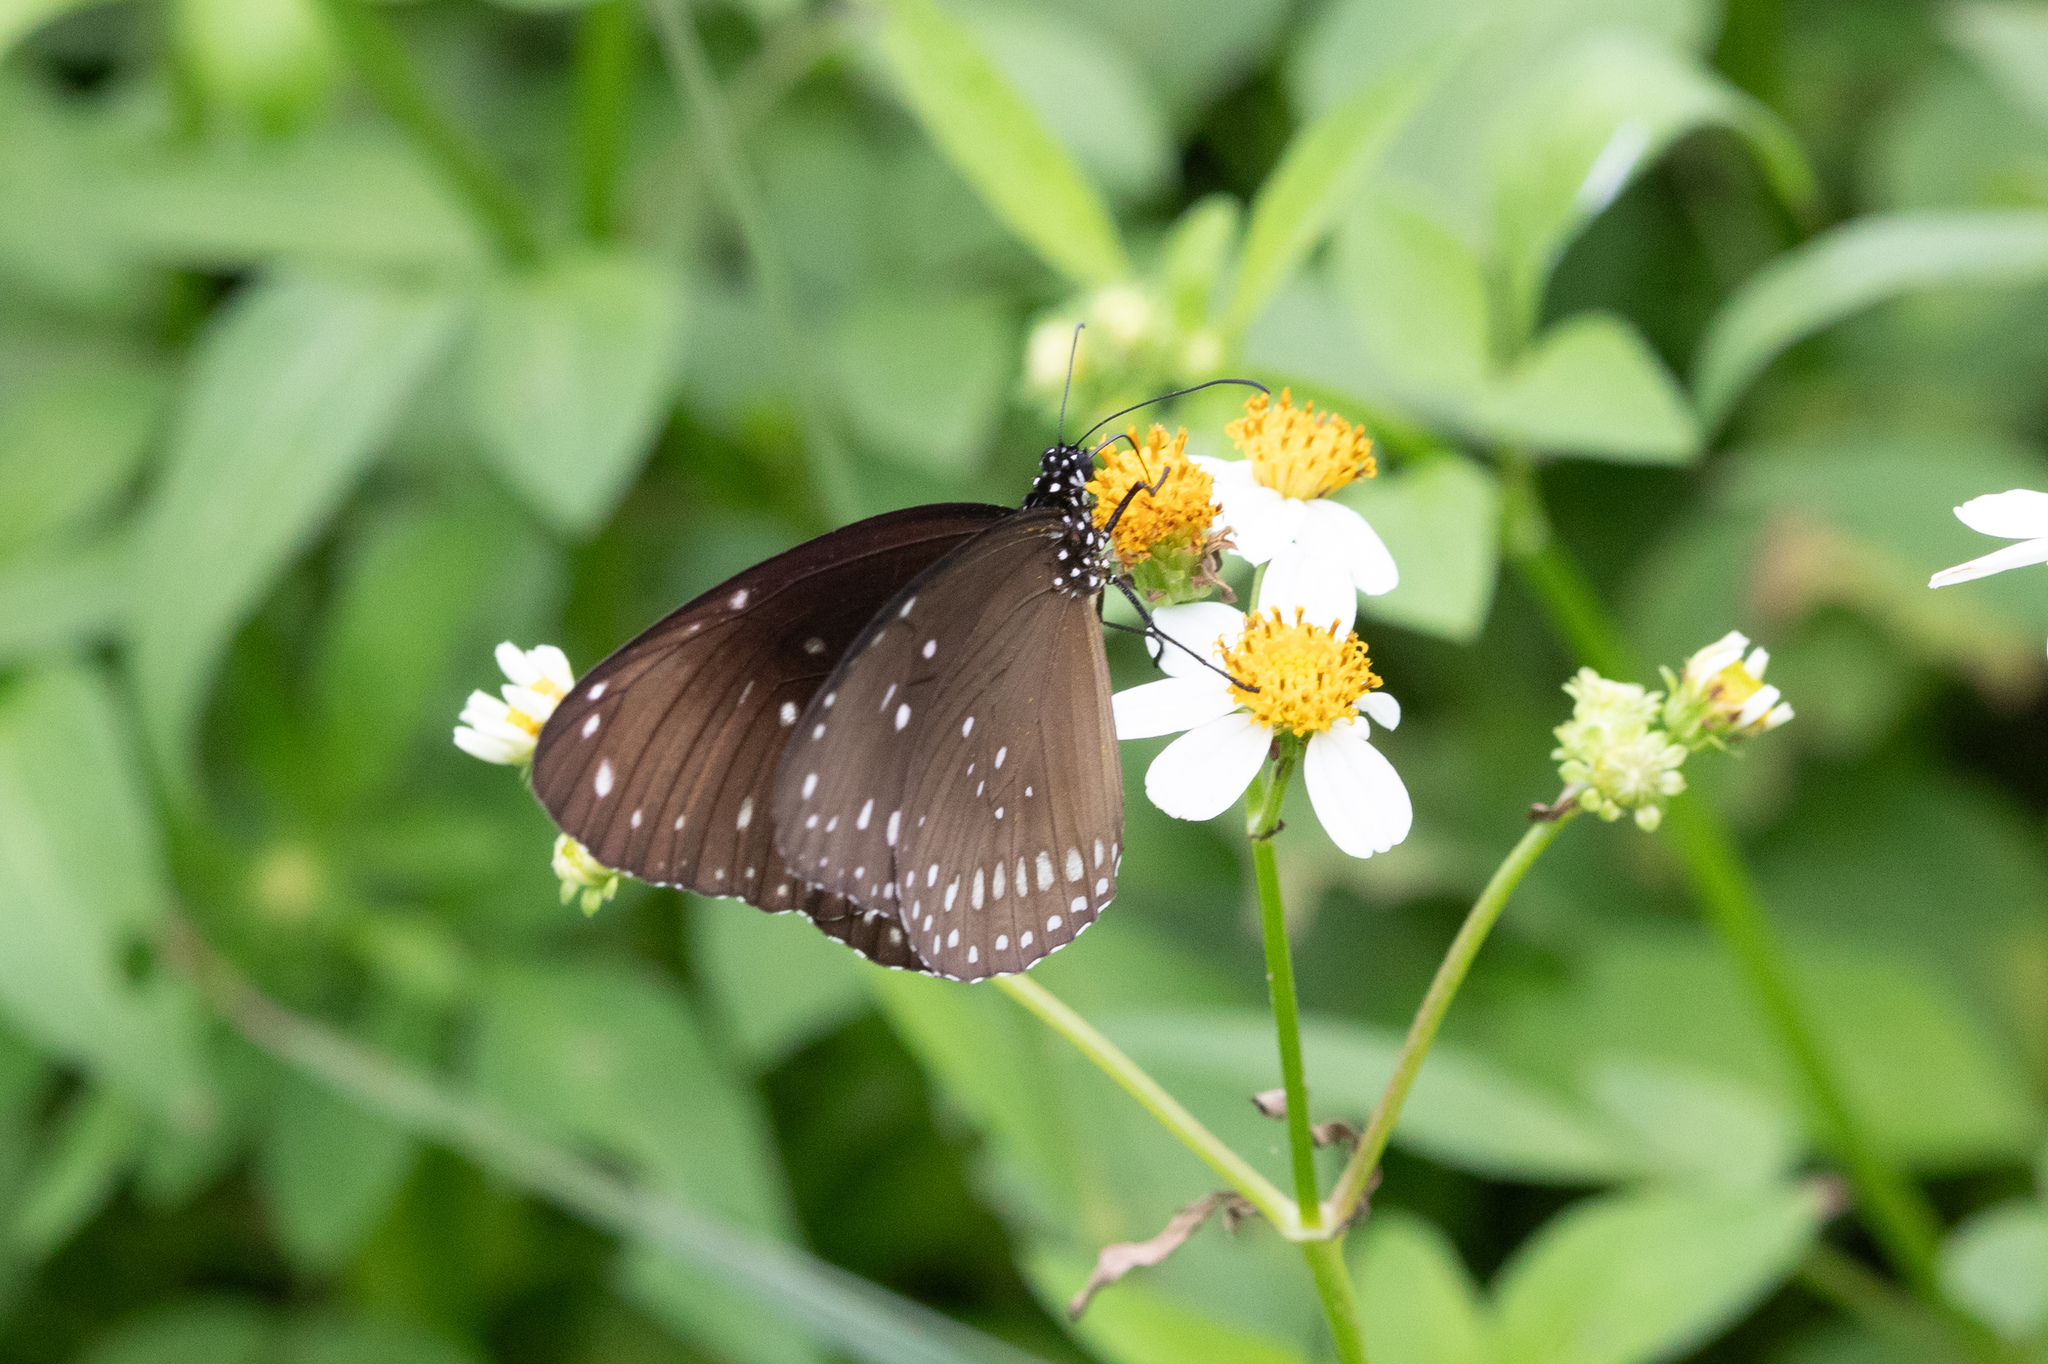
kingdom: Animalia
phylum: Arthropoda
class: Insecta
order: Lepidoptera
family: Nymphalidae
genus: Euploea
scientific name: Euploea core
